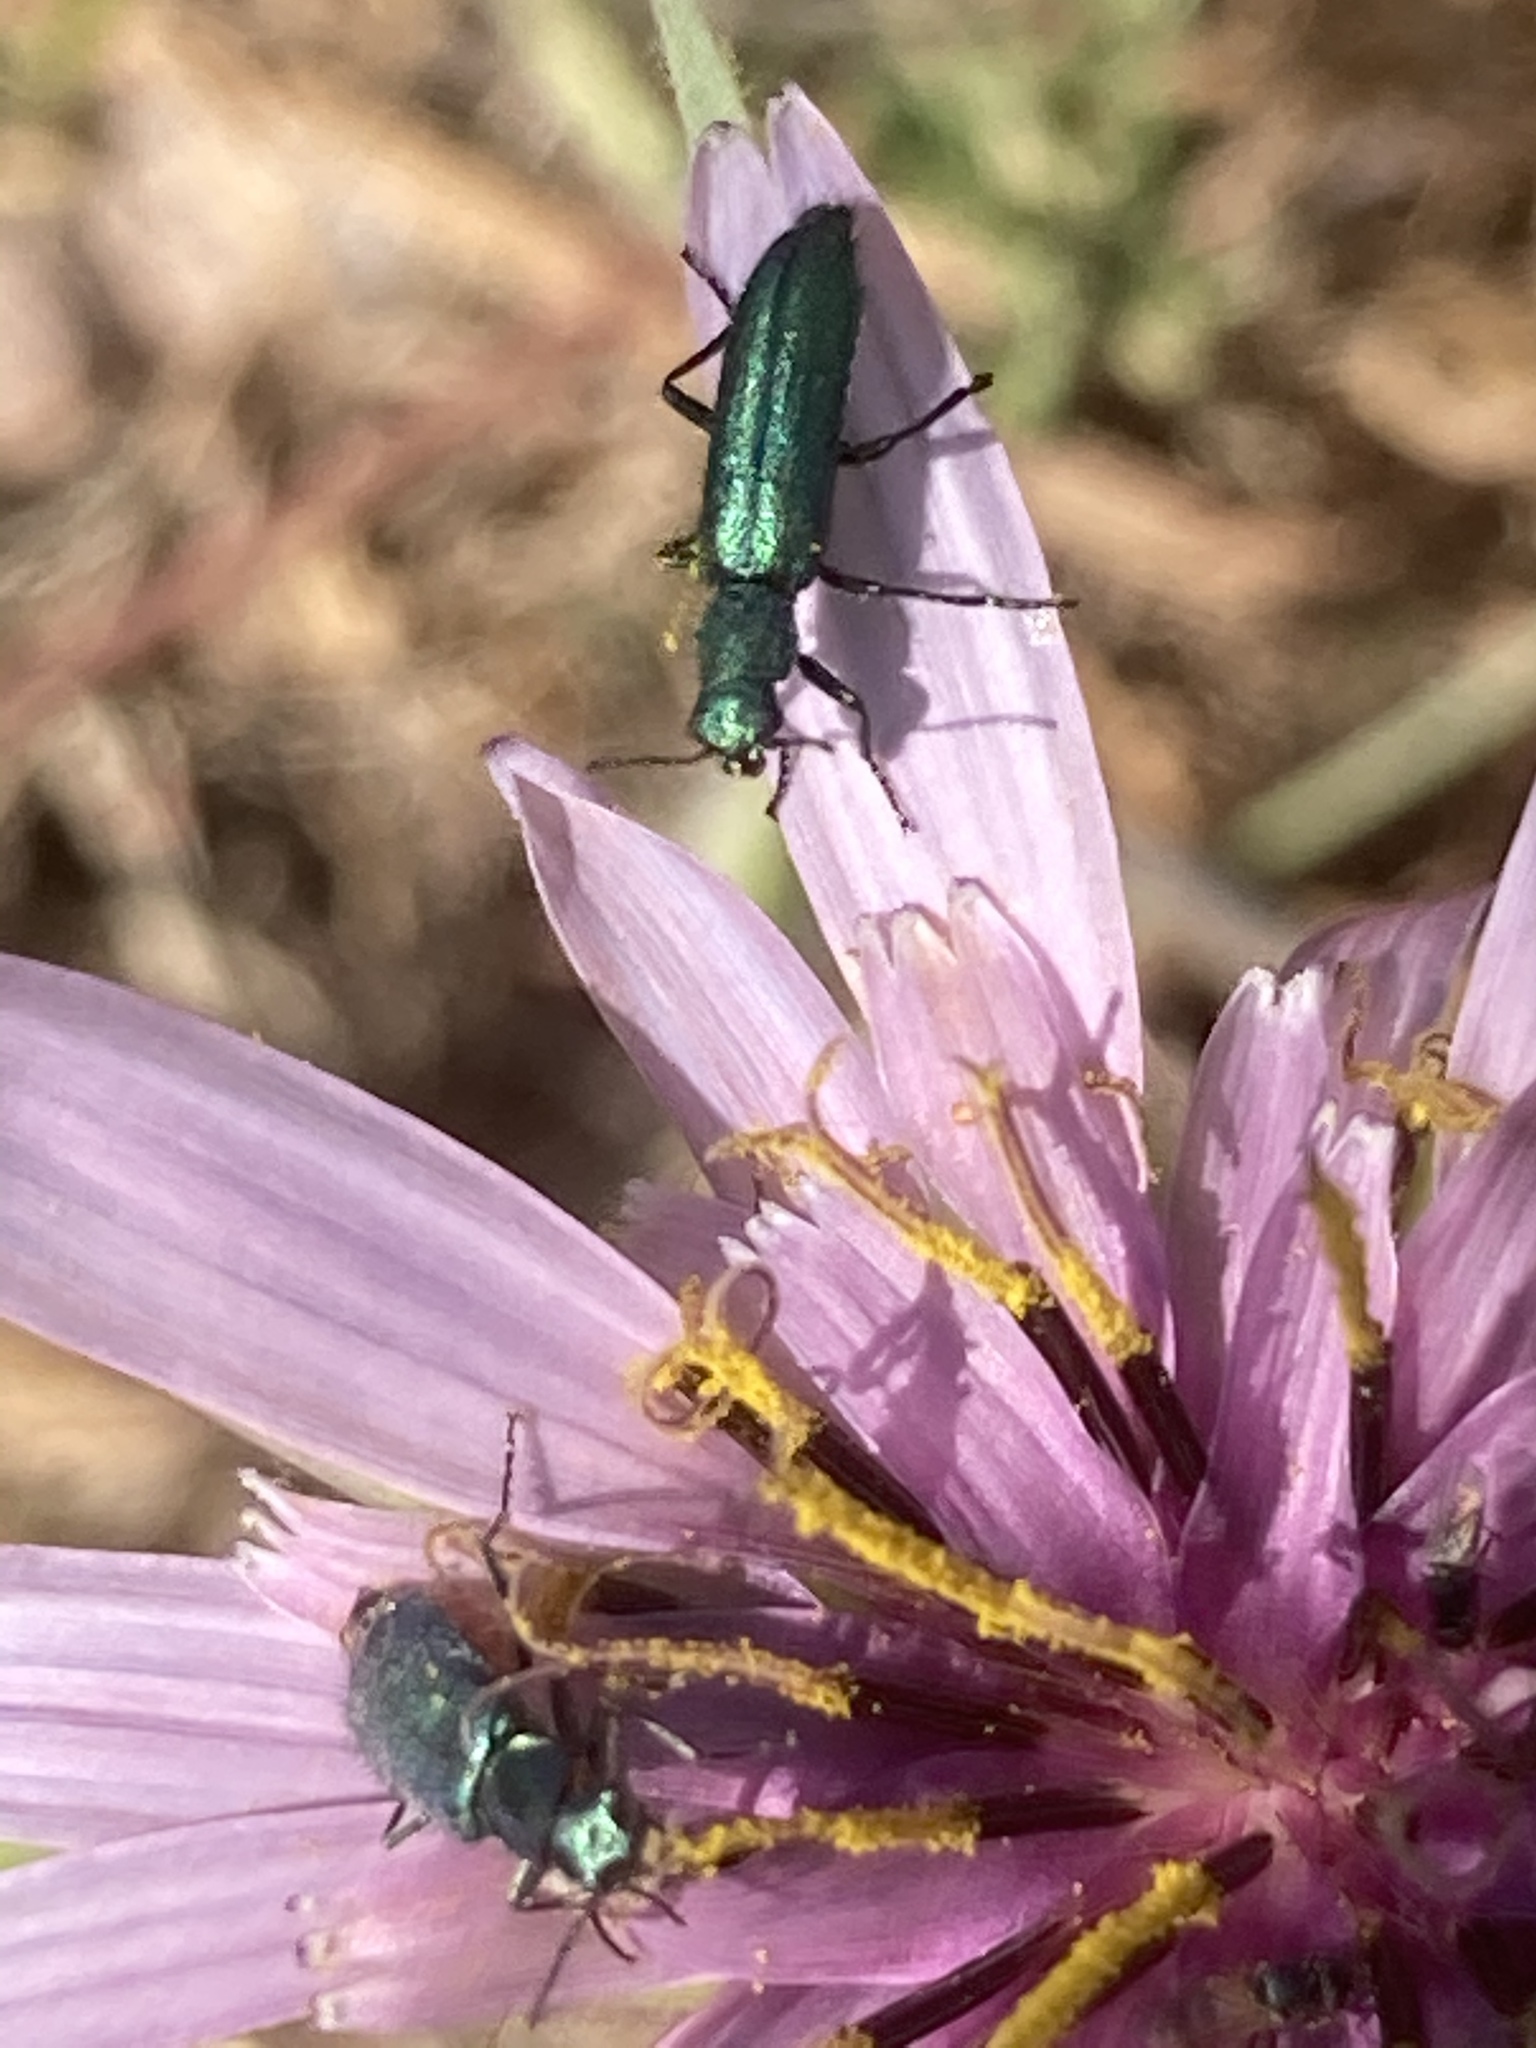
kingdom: Animalia
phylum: Arthropoda
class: Insecta
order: Coleoptera
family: Dasytidae
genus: Psilothrix
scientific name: Psilothrix viridicoerulea
